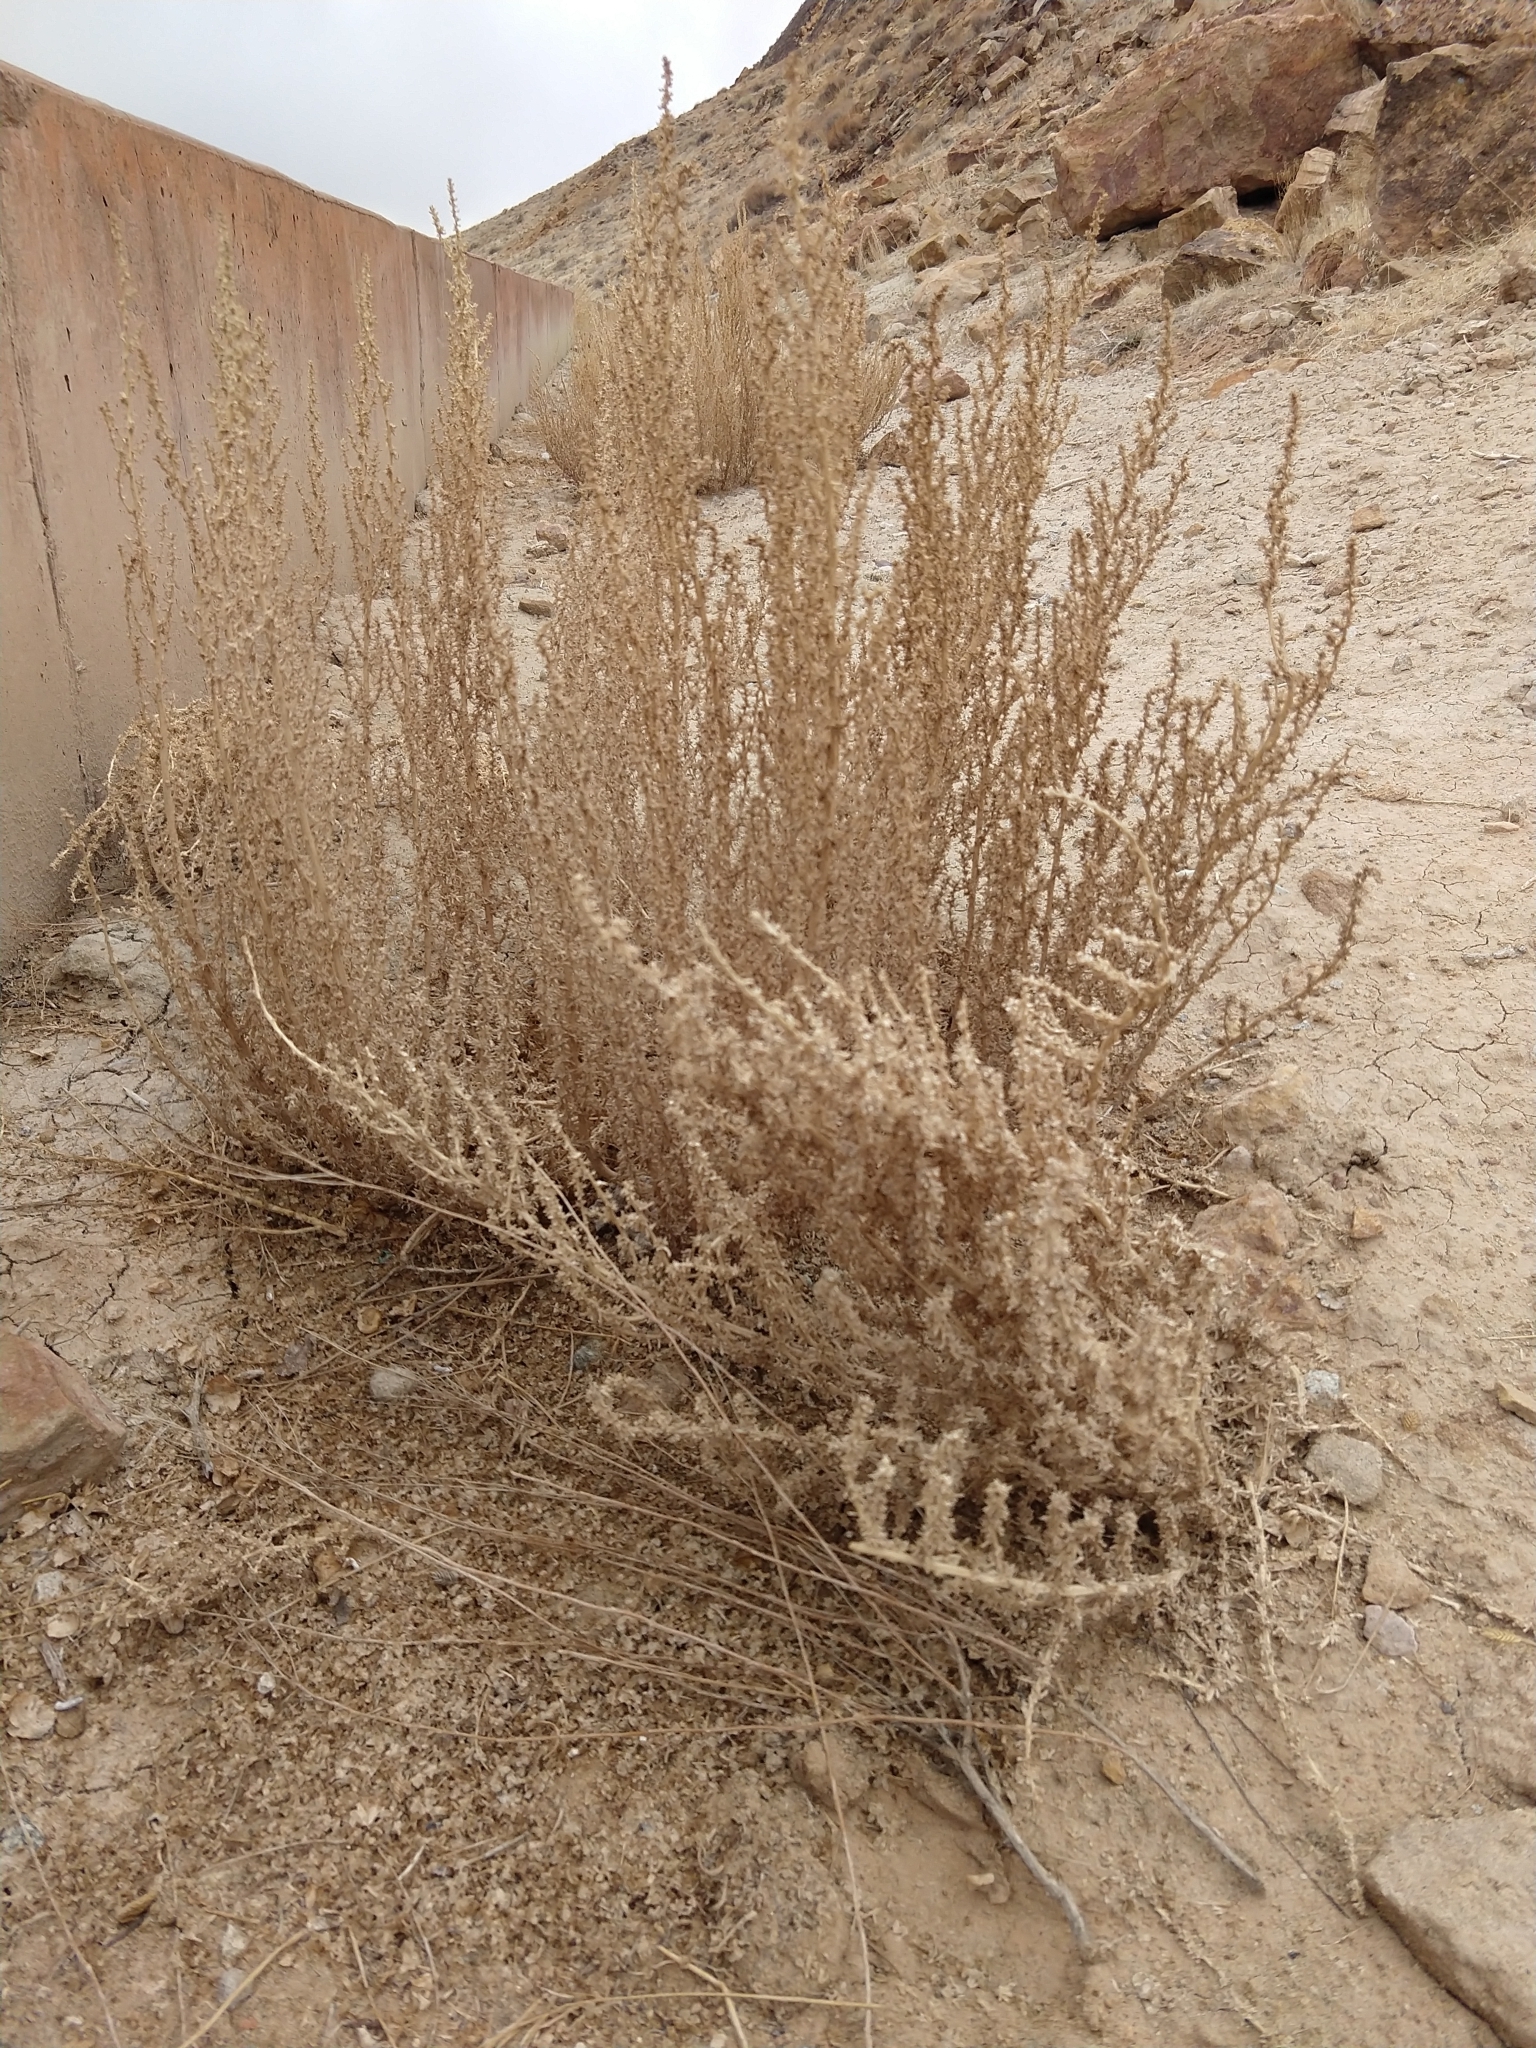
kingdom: Plantae
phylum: Tracheophyta
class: Magnoliopsida
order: Caryophyllales
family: Amaranthaceae
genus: Halogeton
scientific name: Halogeton glomeratus
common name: Saltlover
